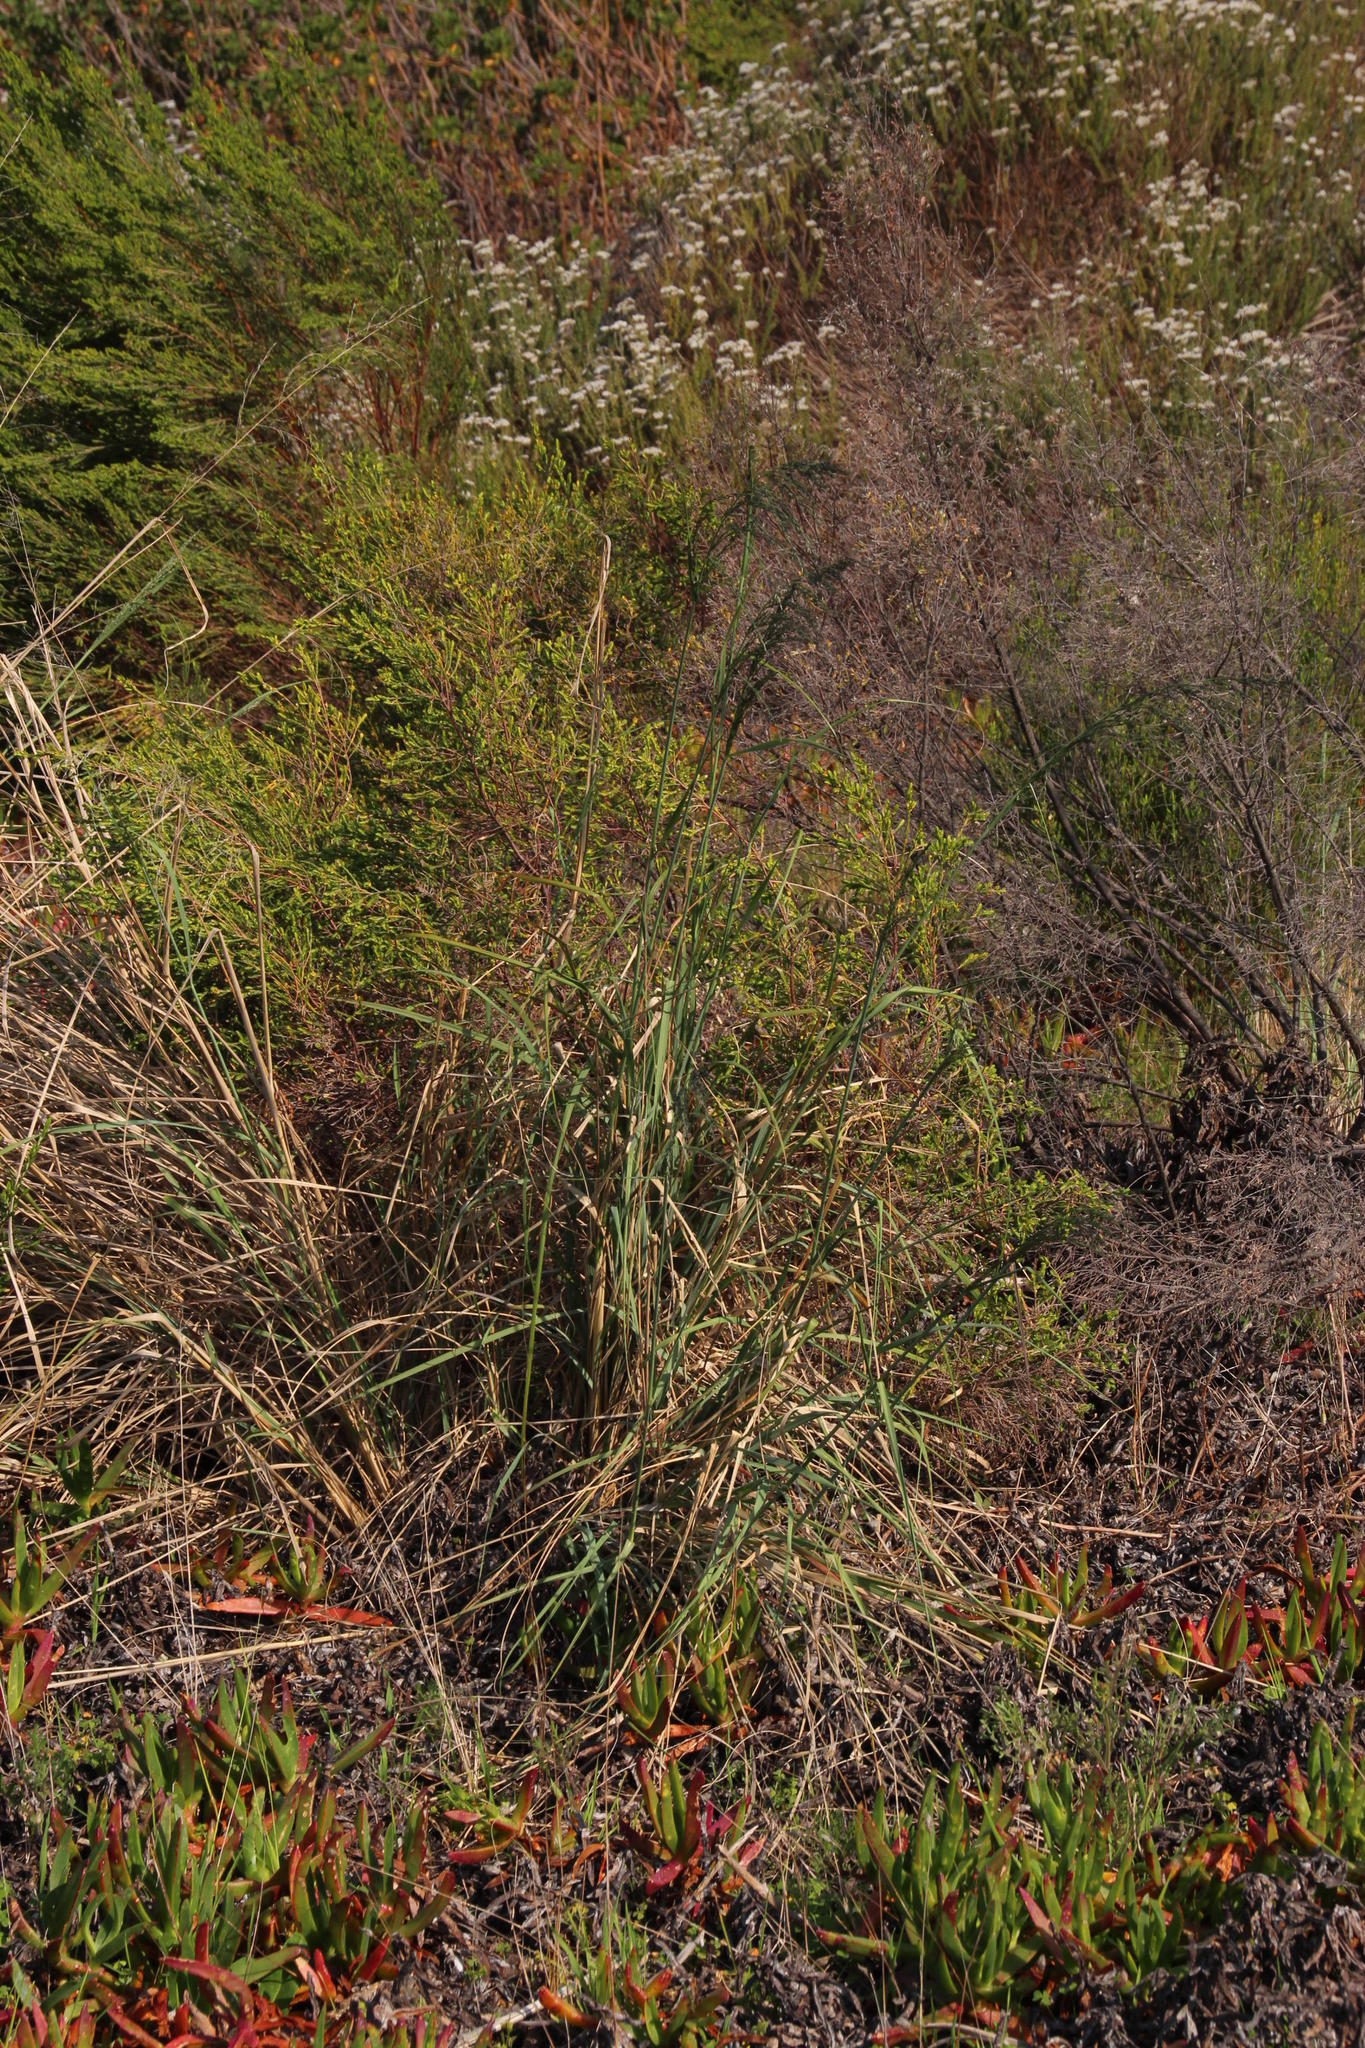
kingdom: Plantae
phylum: Tracheophyta
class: Liliopsida
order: Poales
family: Poaceae
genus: Eragrostis
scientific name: Eragrostis curvula
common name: African love-grass
